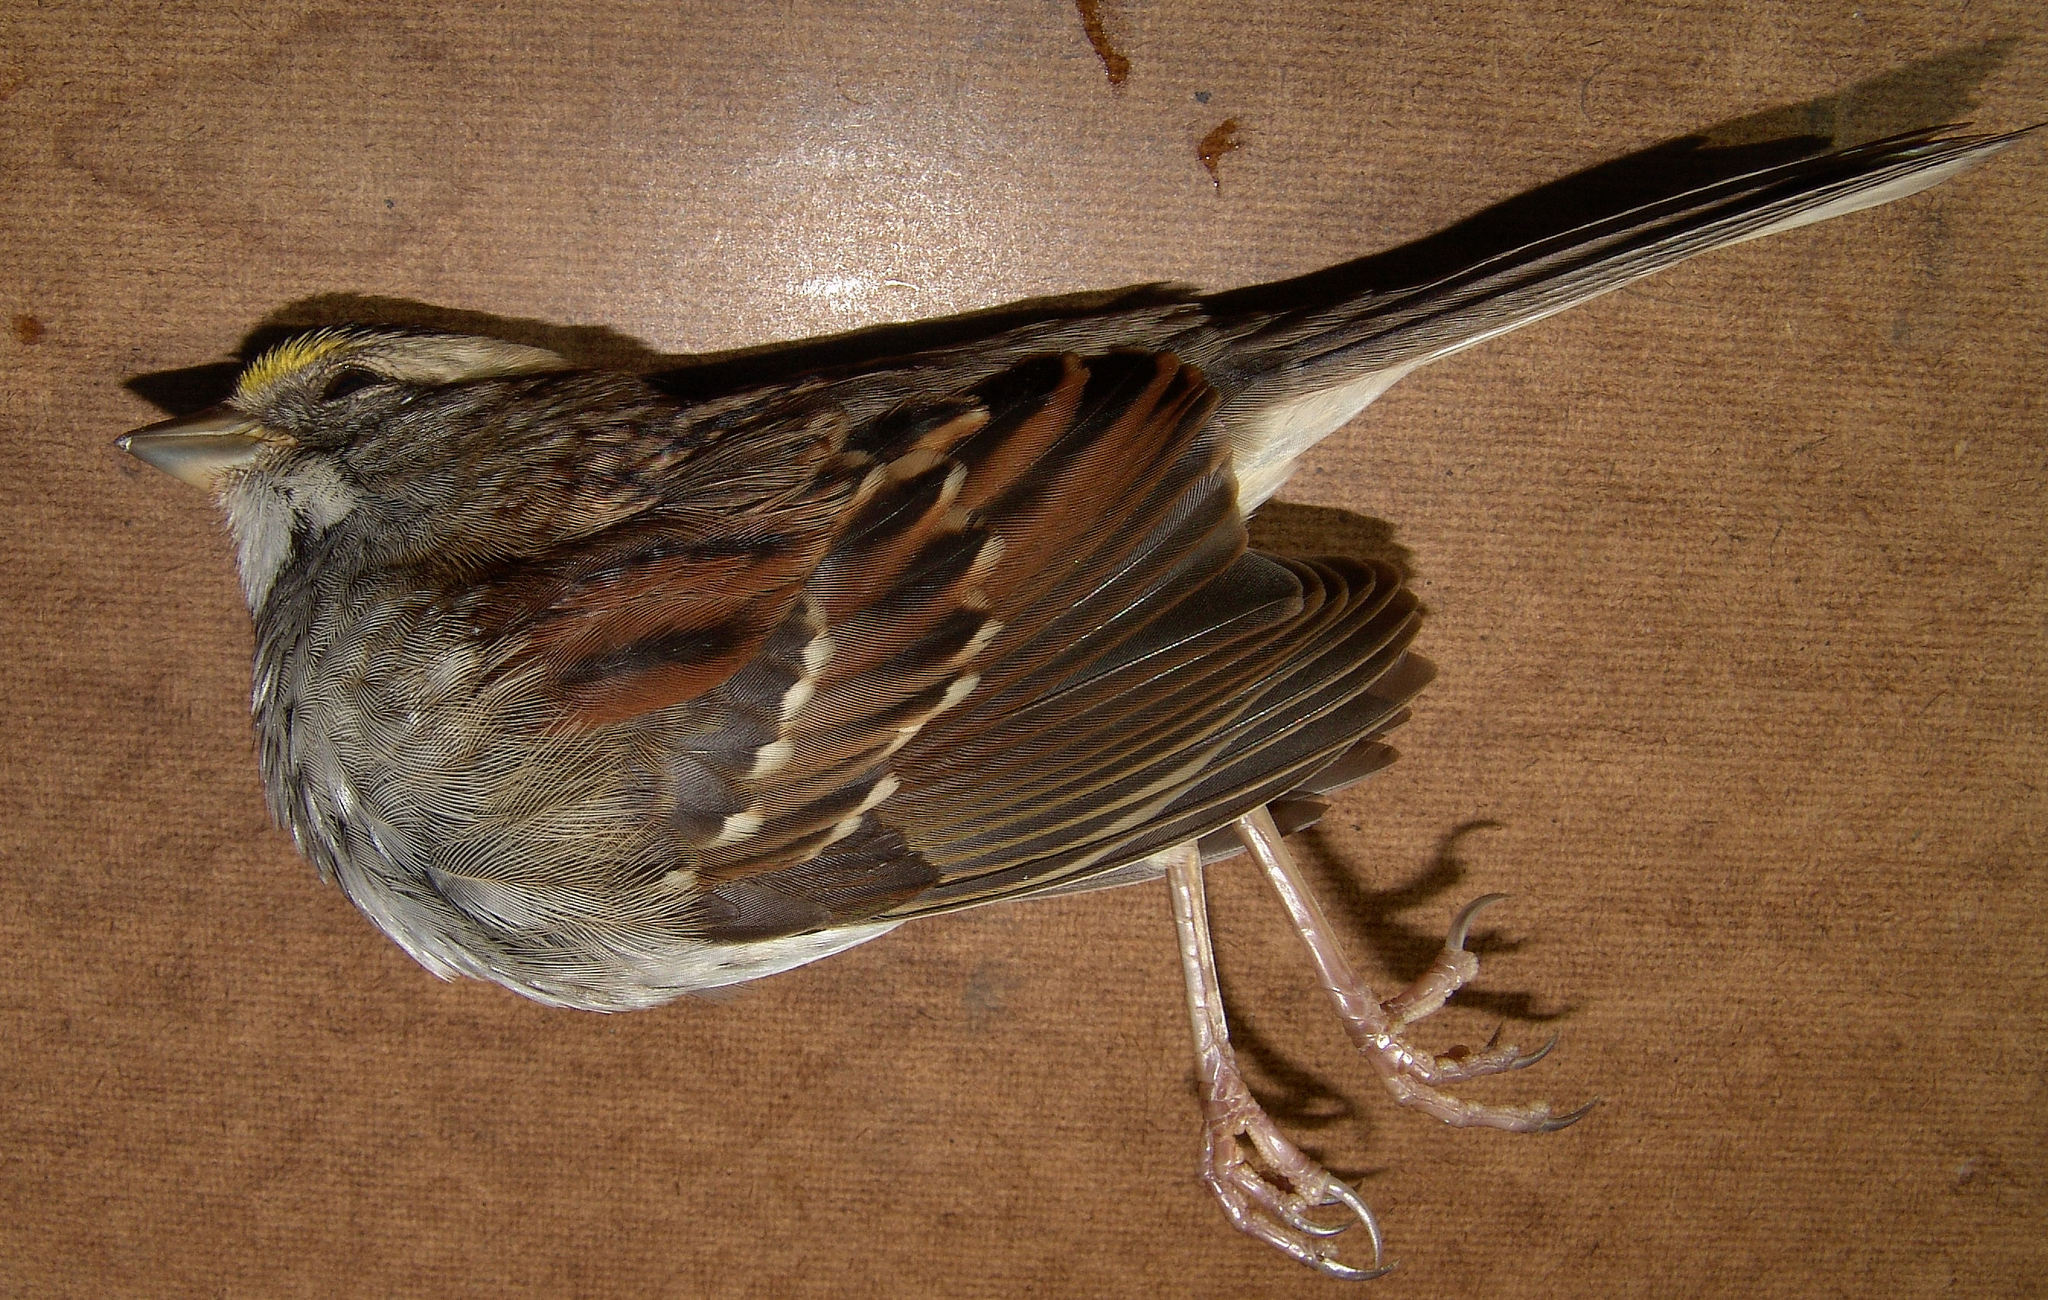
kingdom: Animalia
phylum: Chordata
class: Aves
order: Passeriformes
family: Passerellidae
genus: Zonotrichia
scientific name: Zonotrichia albicollis
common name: White-throated sparrow
